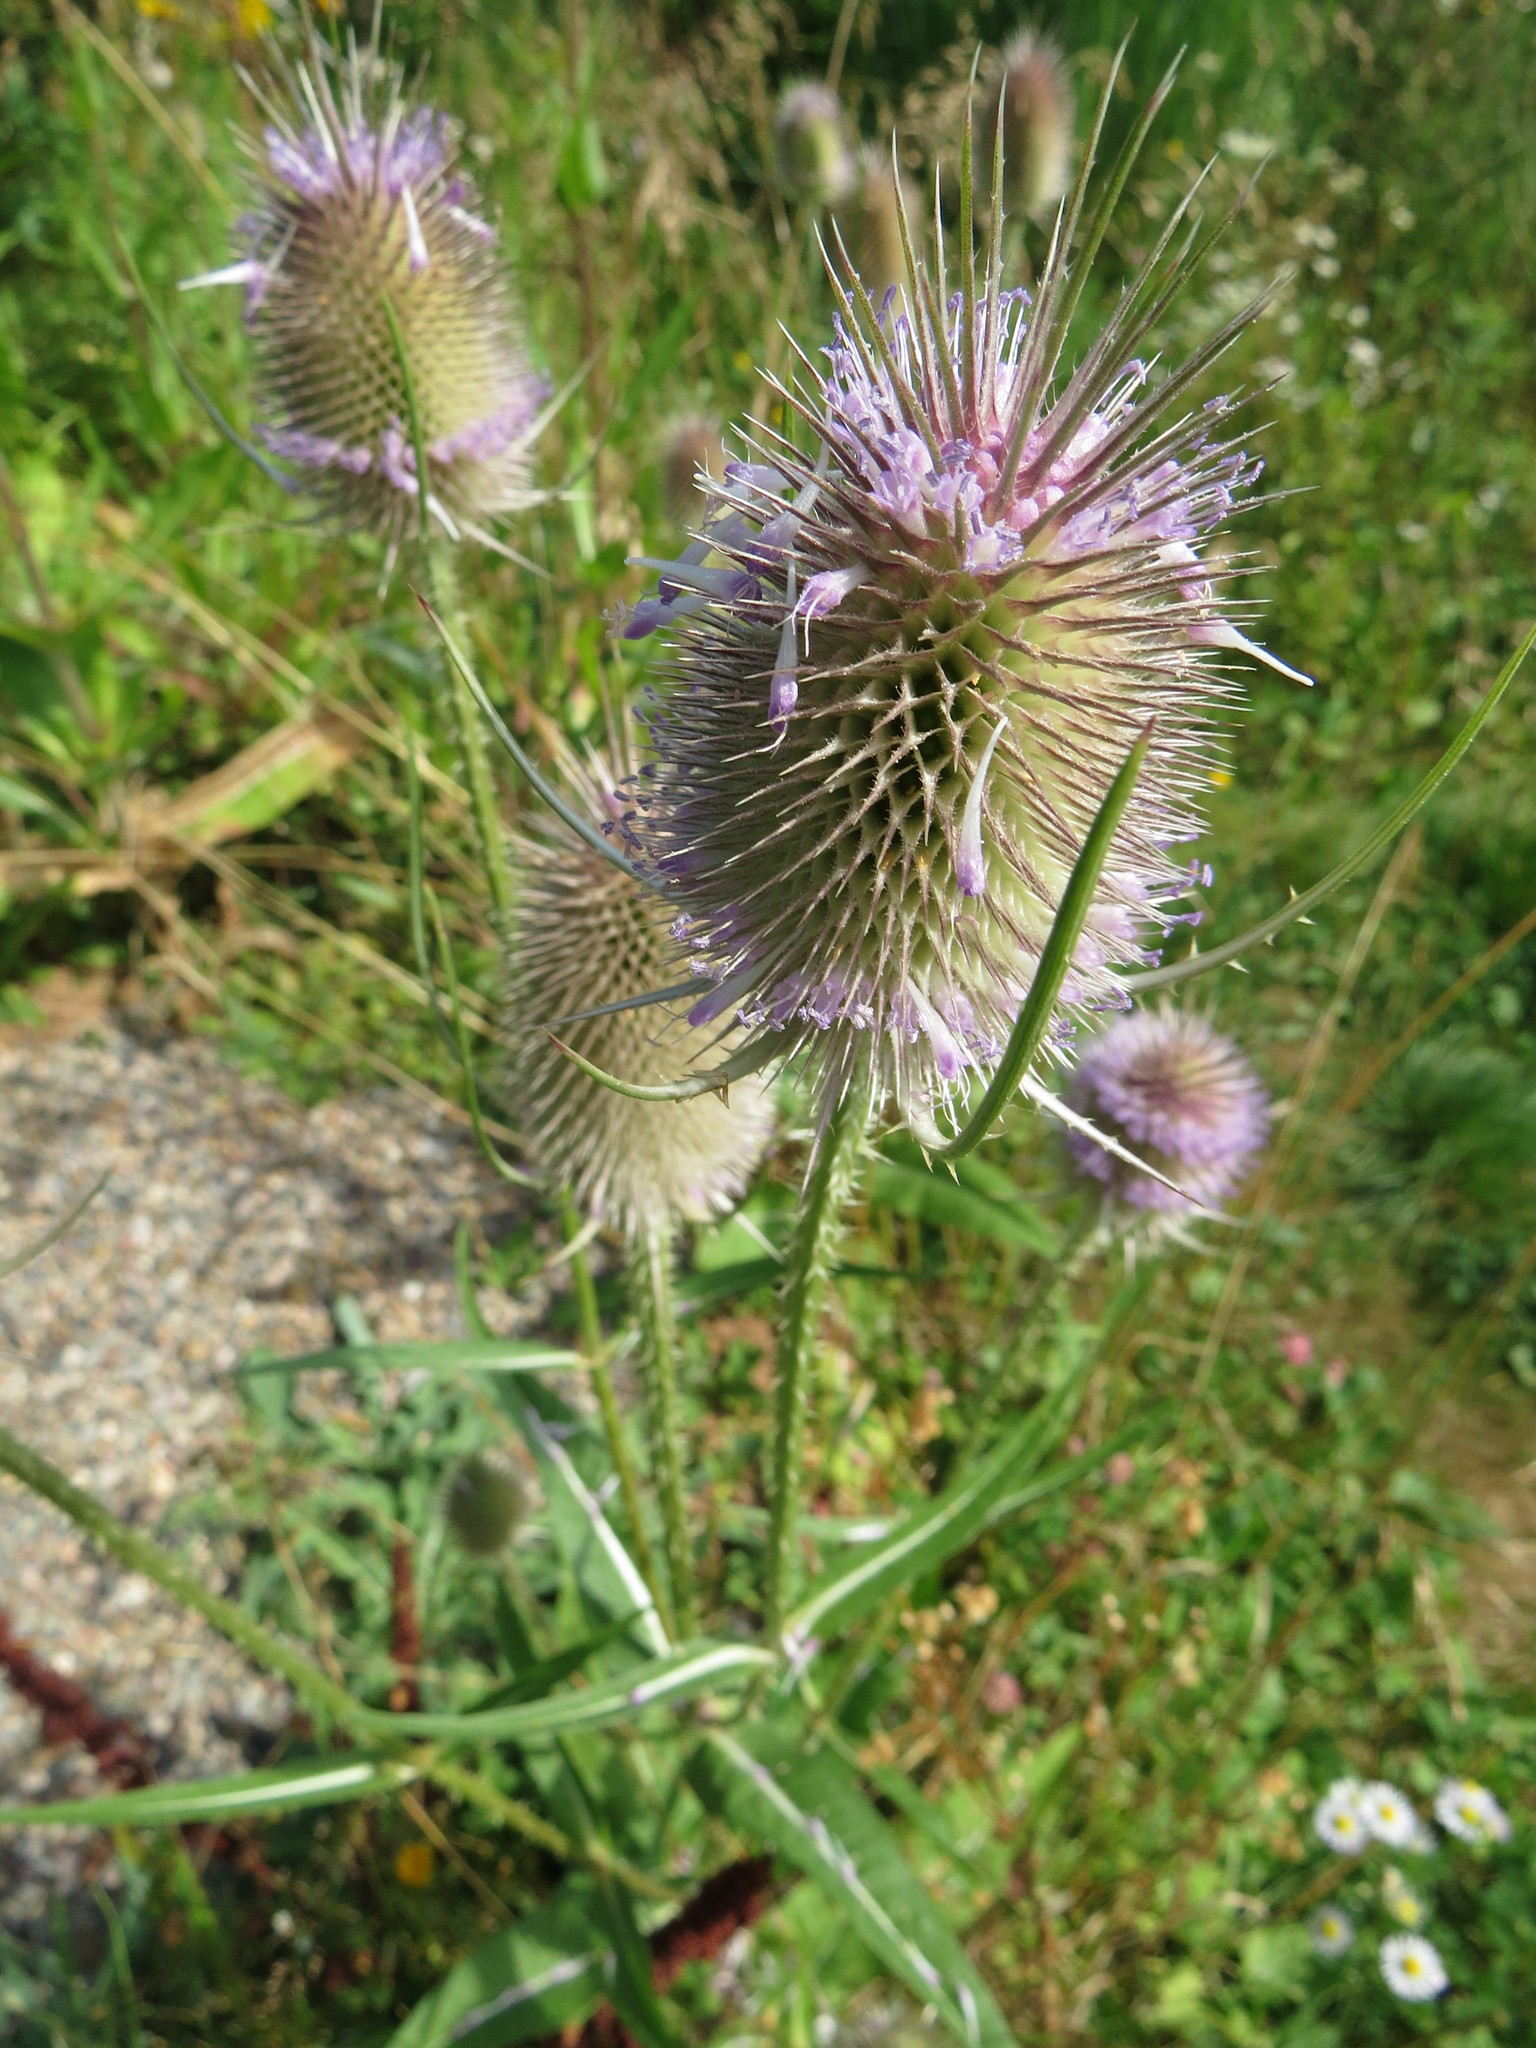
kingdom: Plantae
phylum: Tracheophyta
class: Magnoliopsida
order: Dipsacales
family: Caprifoliaceae
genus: Dipsacus
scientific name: Dipsacus fullonum
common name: Teasel
